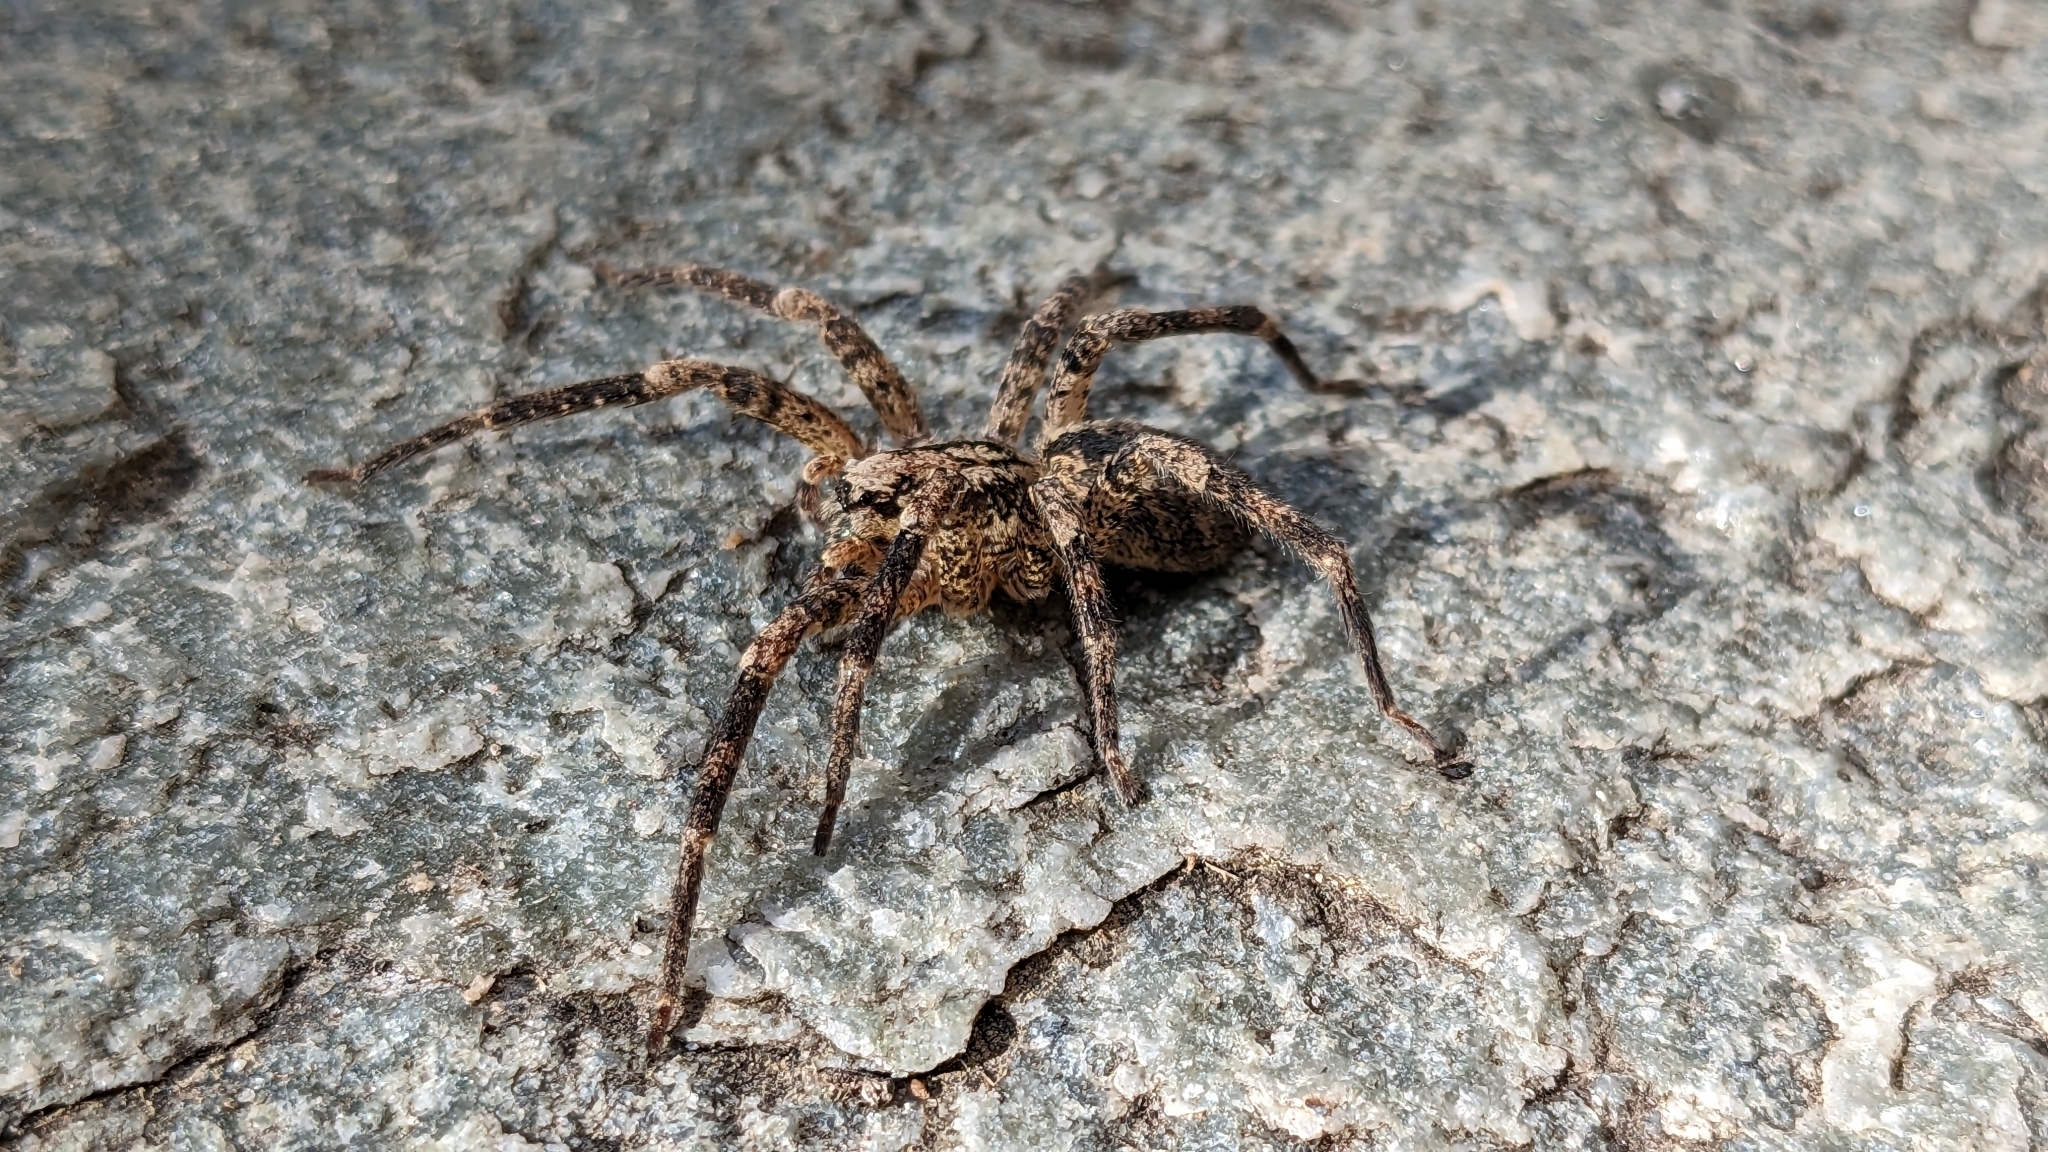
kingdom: Animalia
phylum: Arthropoda
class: Arachnida
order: Araneae
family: Zoropsidae
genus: Zoropsis
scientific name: Zoropsis spinimana
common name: Zoropsid spider
